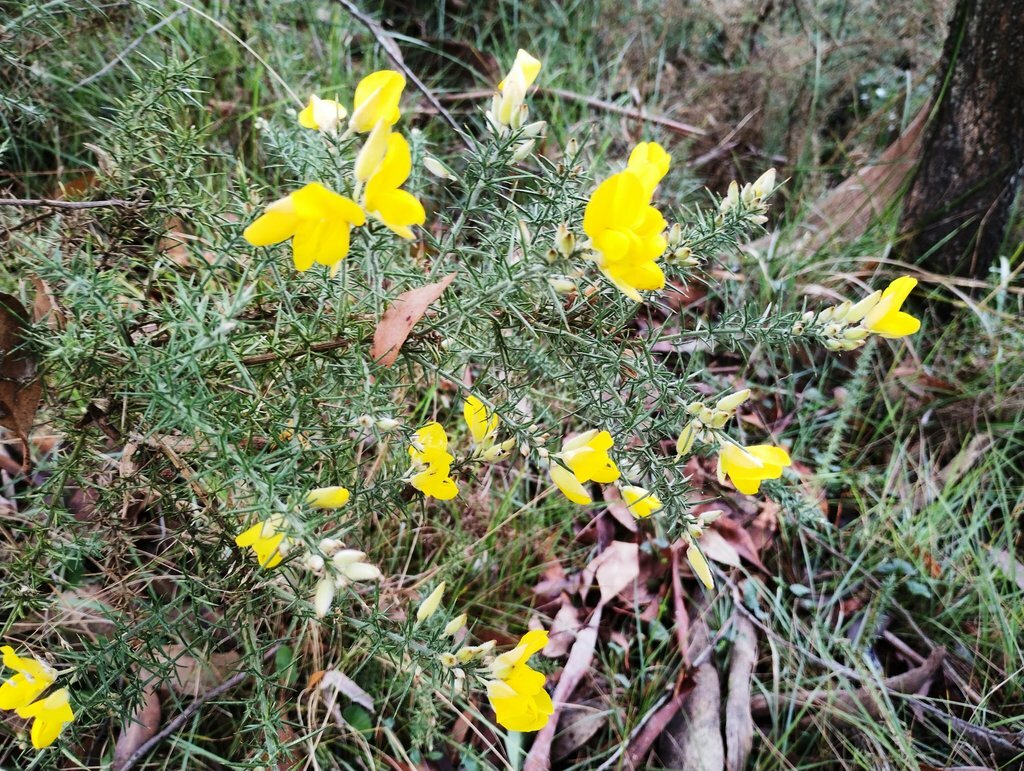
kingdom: Plantae
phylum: Tracheophyta
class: Magnoliopsida
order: Fabales
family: Fabaceae
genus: Ulex
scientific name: Ulex europaeus
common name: Common gorse
